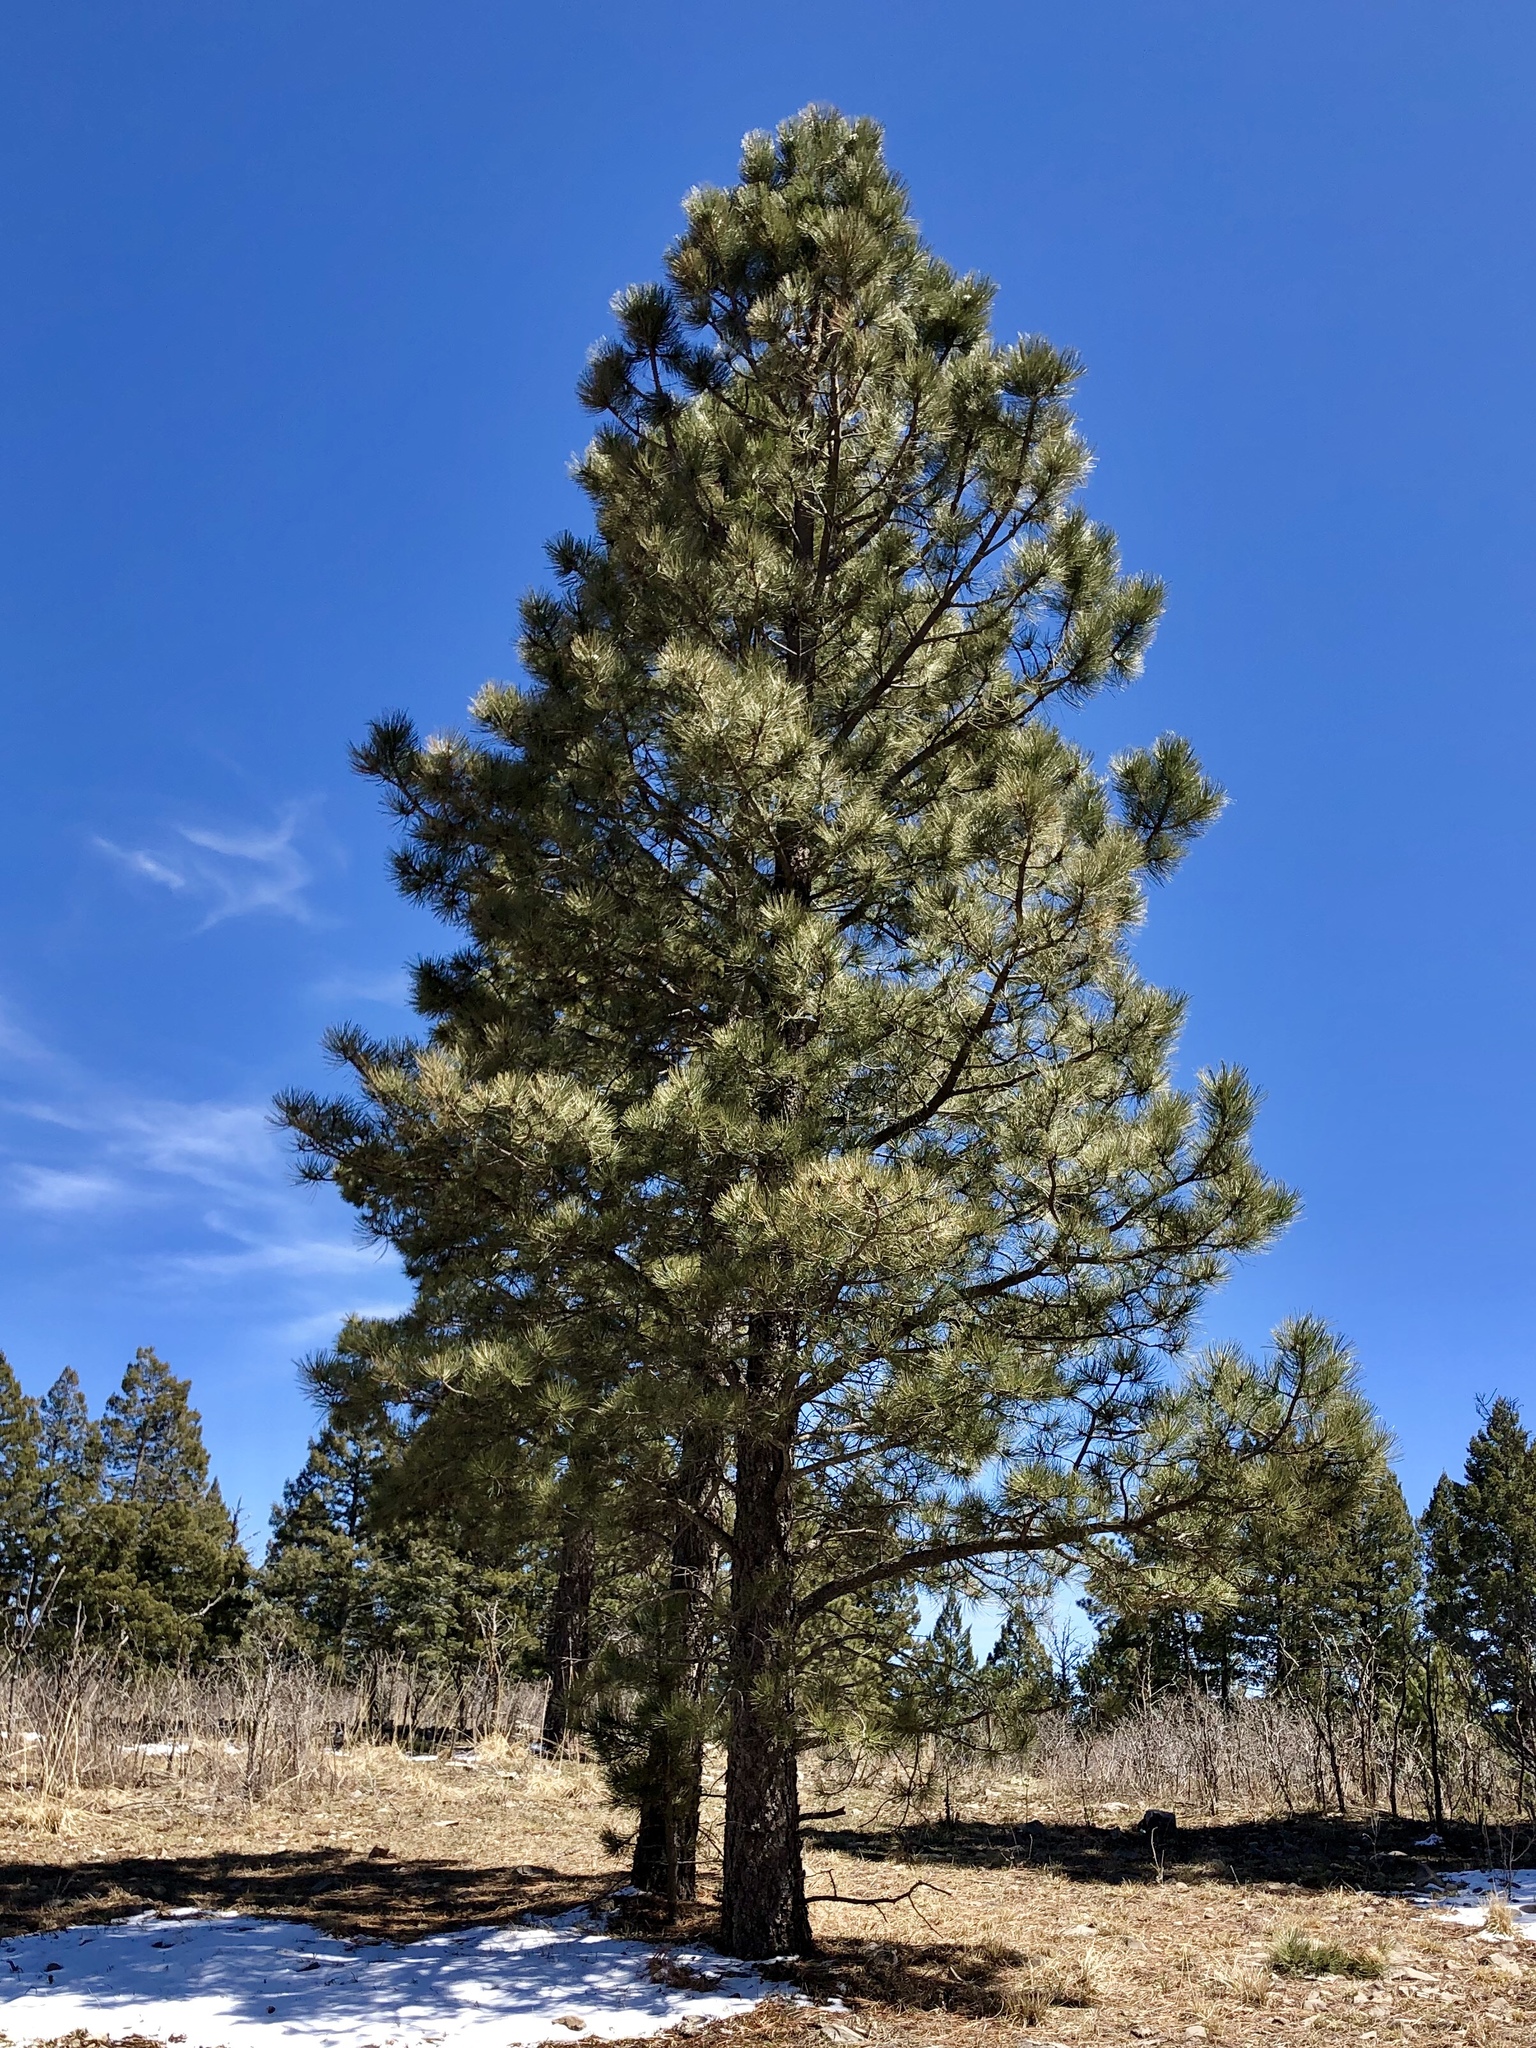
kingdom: Plantae
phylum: Tracheophyta
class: Pinopsida
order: Pinales
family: Pinaceae
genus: Pinus
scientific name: Pinus ponderosa
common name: Western yellow-pine
